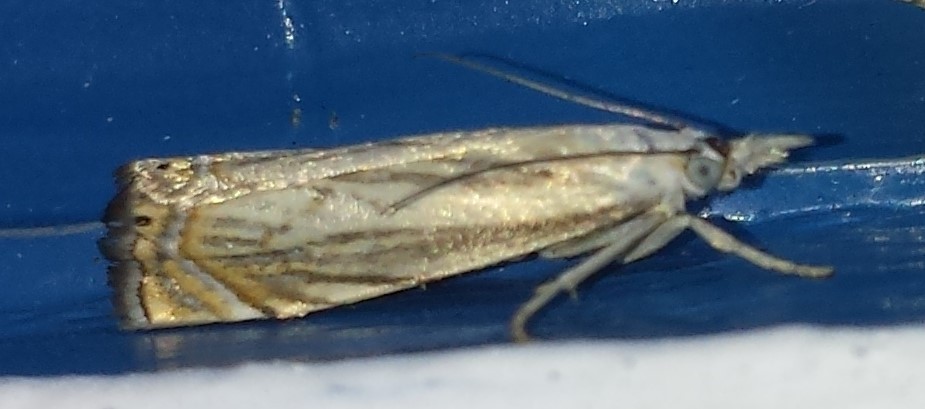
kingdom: Animalia
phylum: Arthropoda
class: Insecta
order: Lepidoptera
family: Crambidae
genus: Chrysoteuchia
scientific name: Chrysoteuchia topiarius
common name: Topiary grass-veneer
